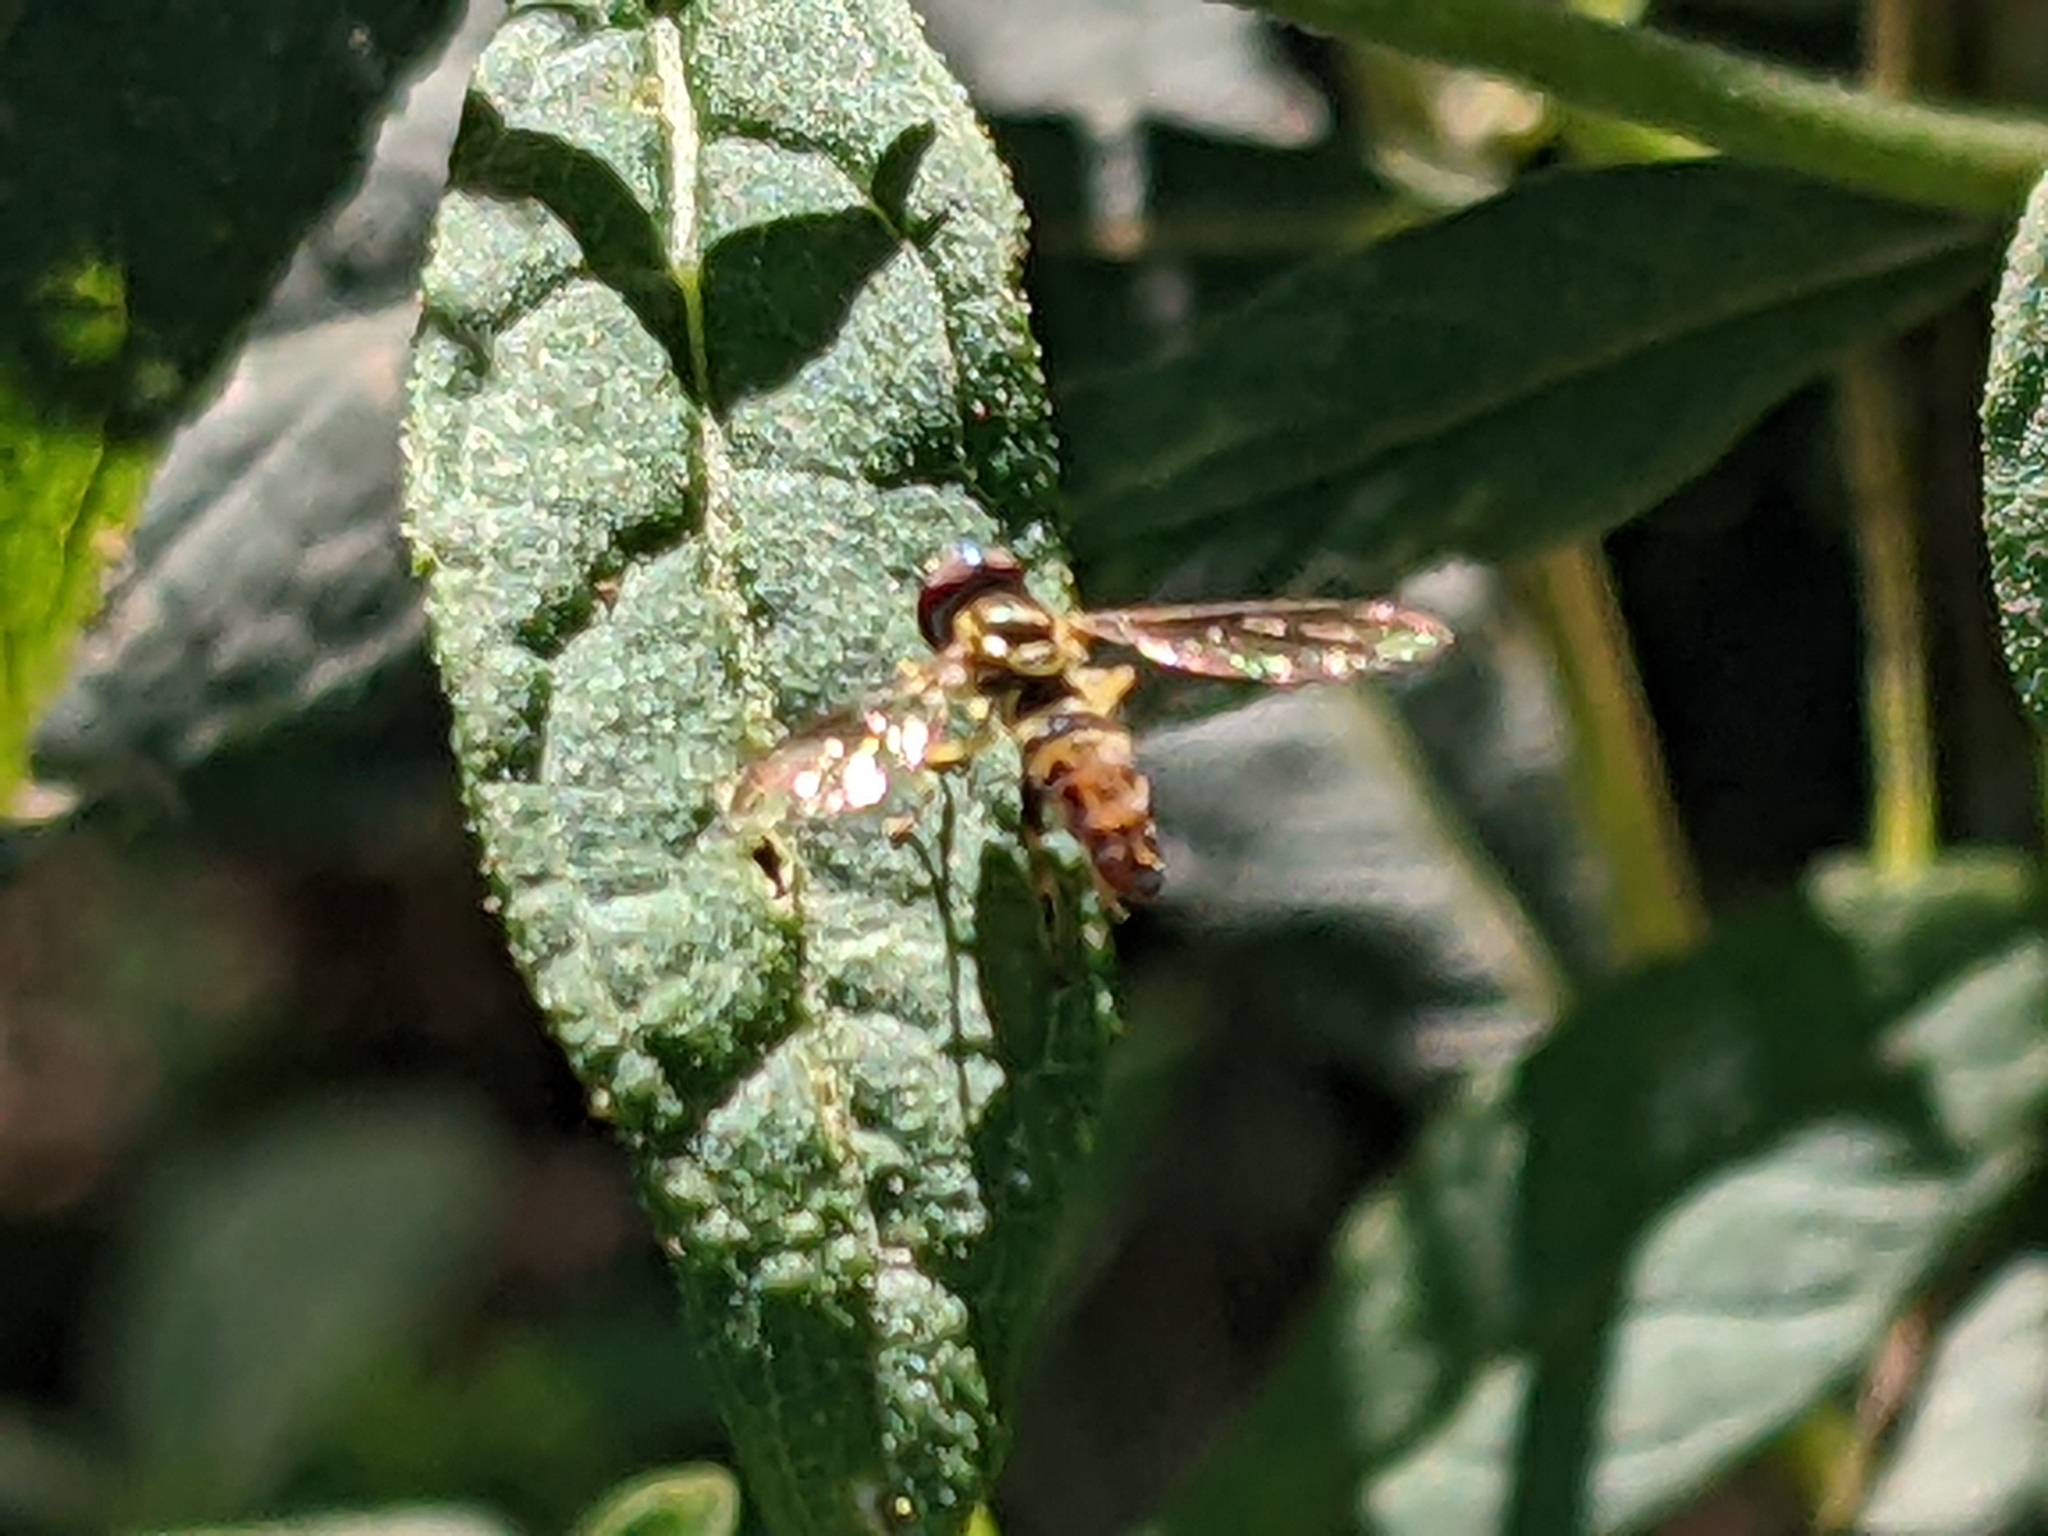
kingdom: Animalia
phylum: Arthropoda
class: Insecta
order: Diptera
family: Syrphidae
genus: Toxomerus
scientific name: Toxomerus geminatus
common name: Eastern calligrapher
